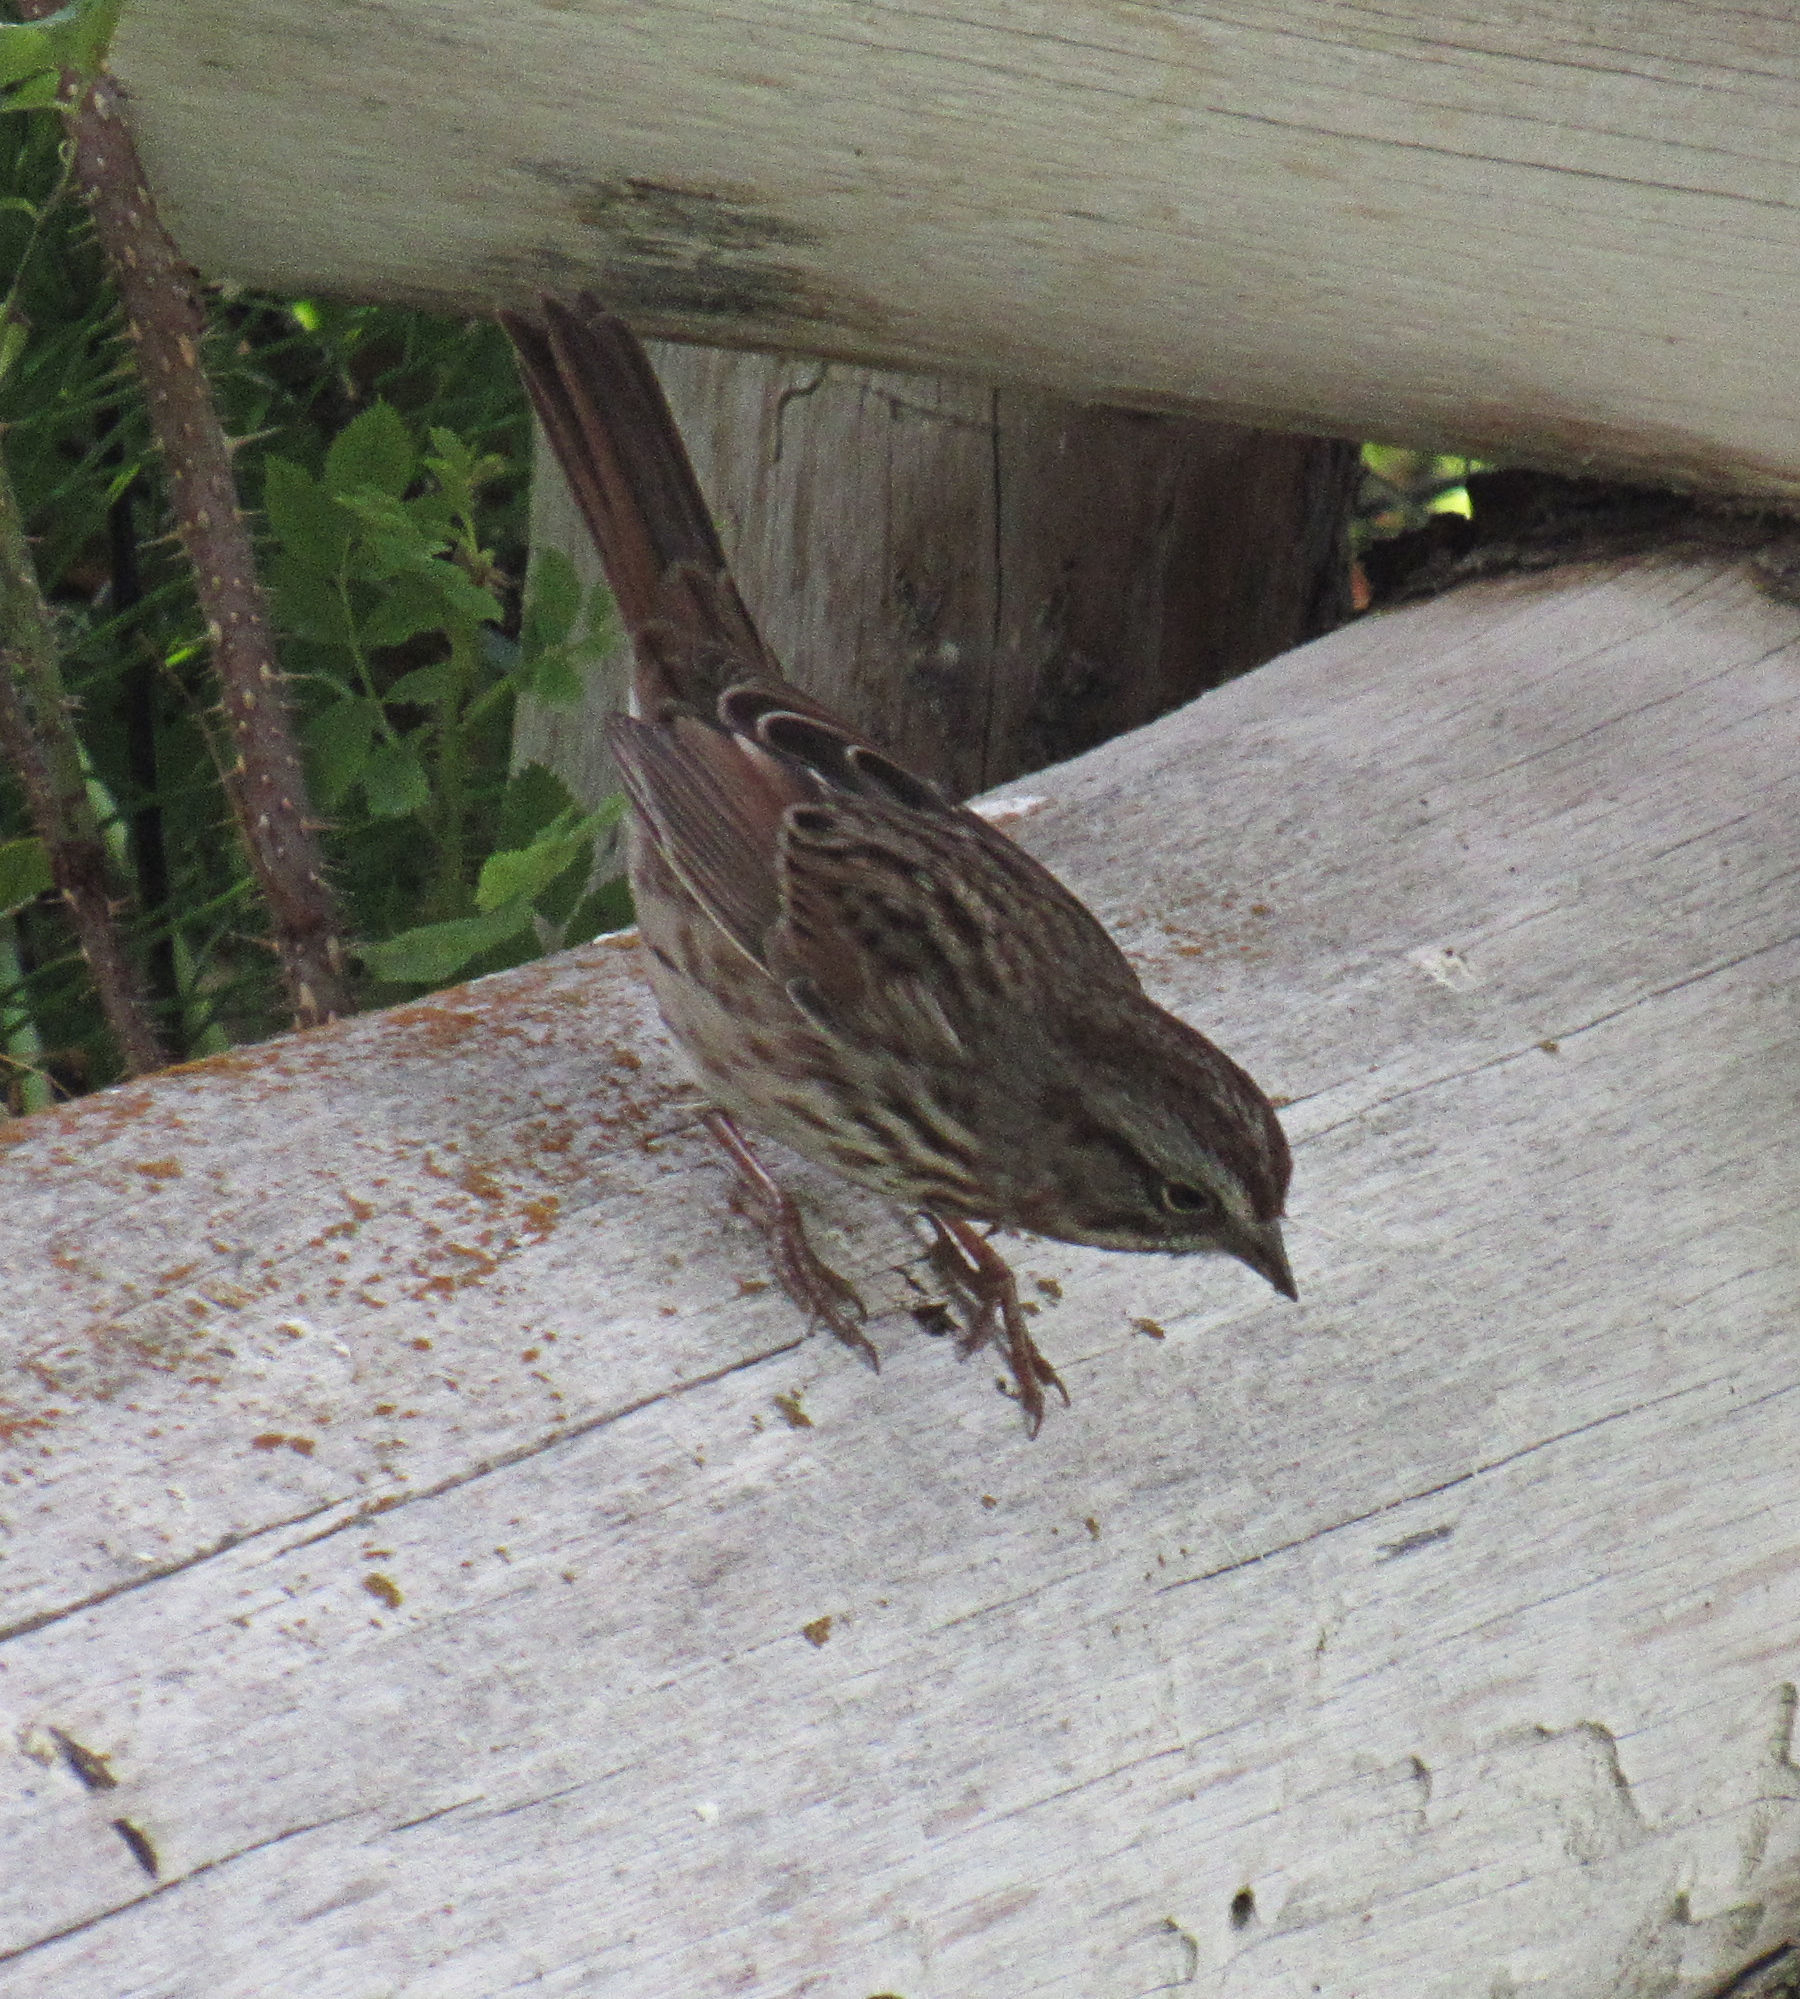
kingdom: Animalia
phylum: Chordata
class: Aves
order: Passeriformes
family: Passerellidae
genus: Melospiza
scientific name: Melospiza melodia
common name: Song sparrow
